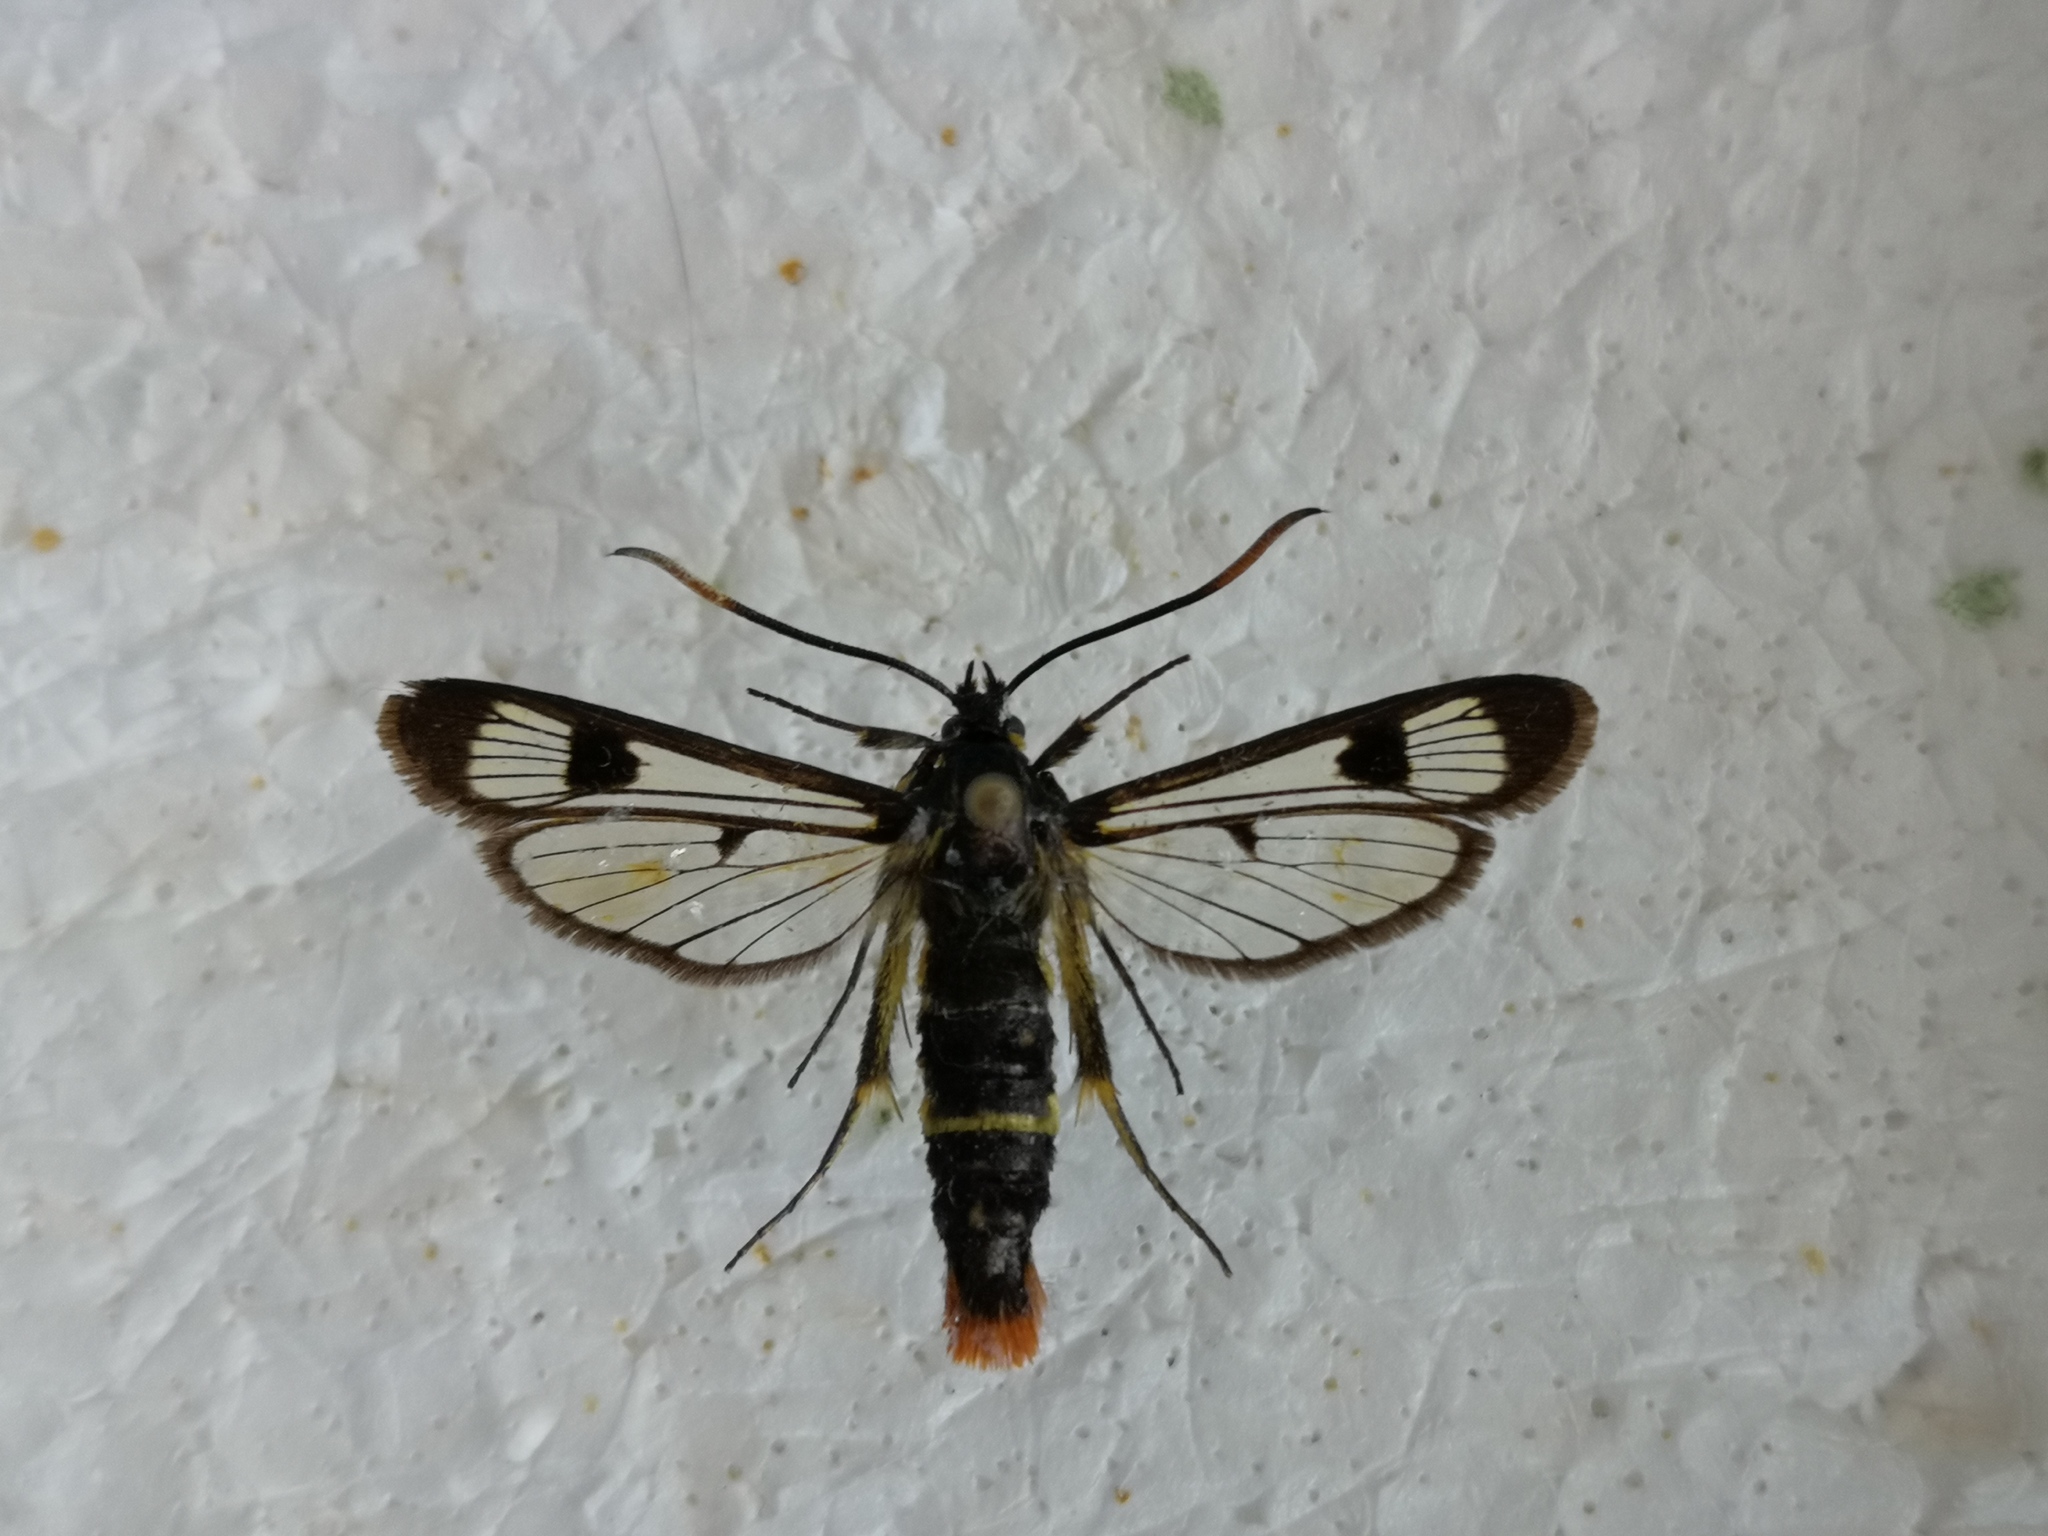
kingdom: Animalia
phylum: Arthropoda
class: Insecta
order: Lepidoptera
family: Sesiidae
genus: Synanthedon
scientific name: Synanthedon scoliaeformis
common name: Welsh clearwing
